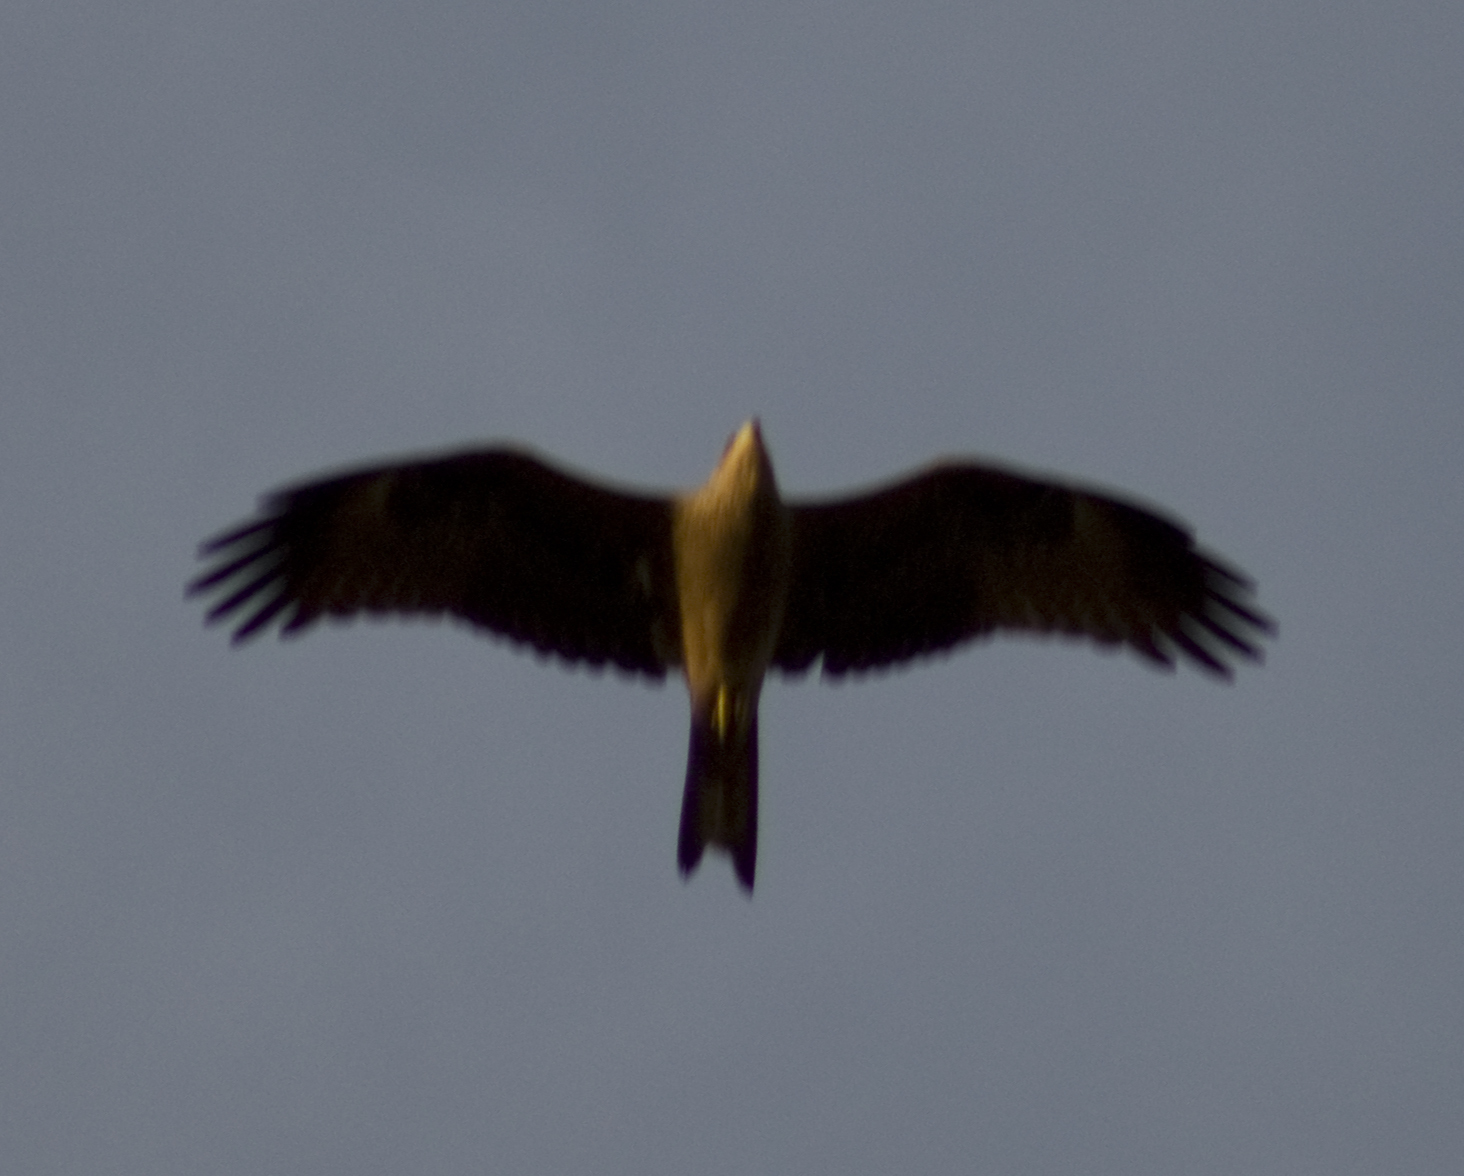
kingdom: Animalia
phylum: Chordata
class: Aves
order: Accipitriformes
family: Accipitridae
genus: Milvus
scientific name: Milvus migrans
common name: Black kite
